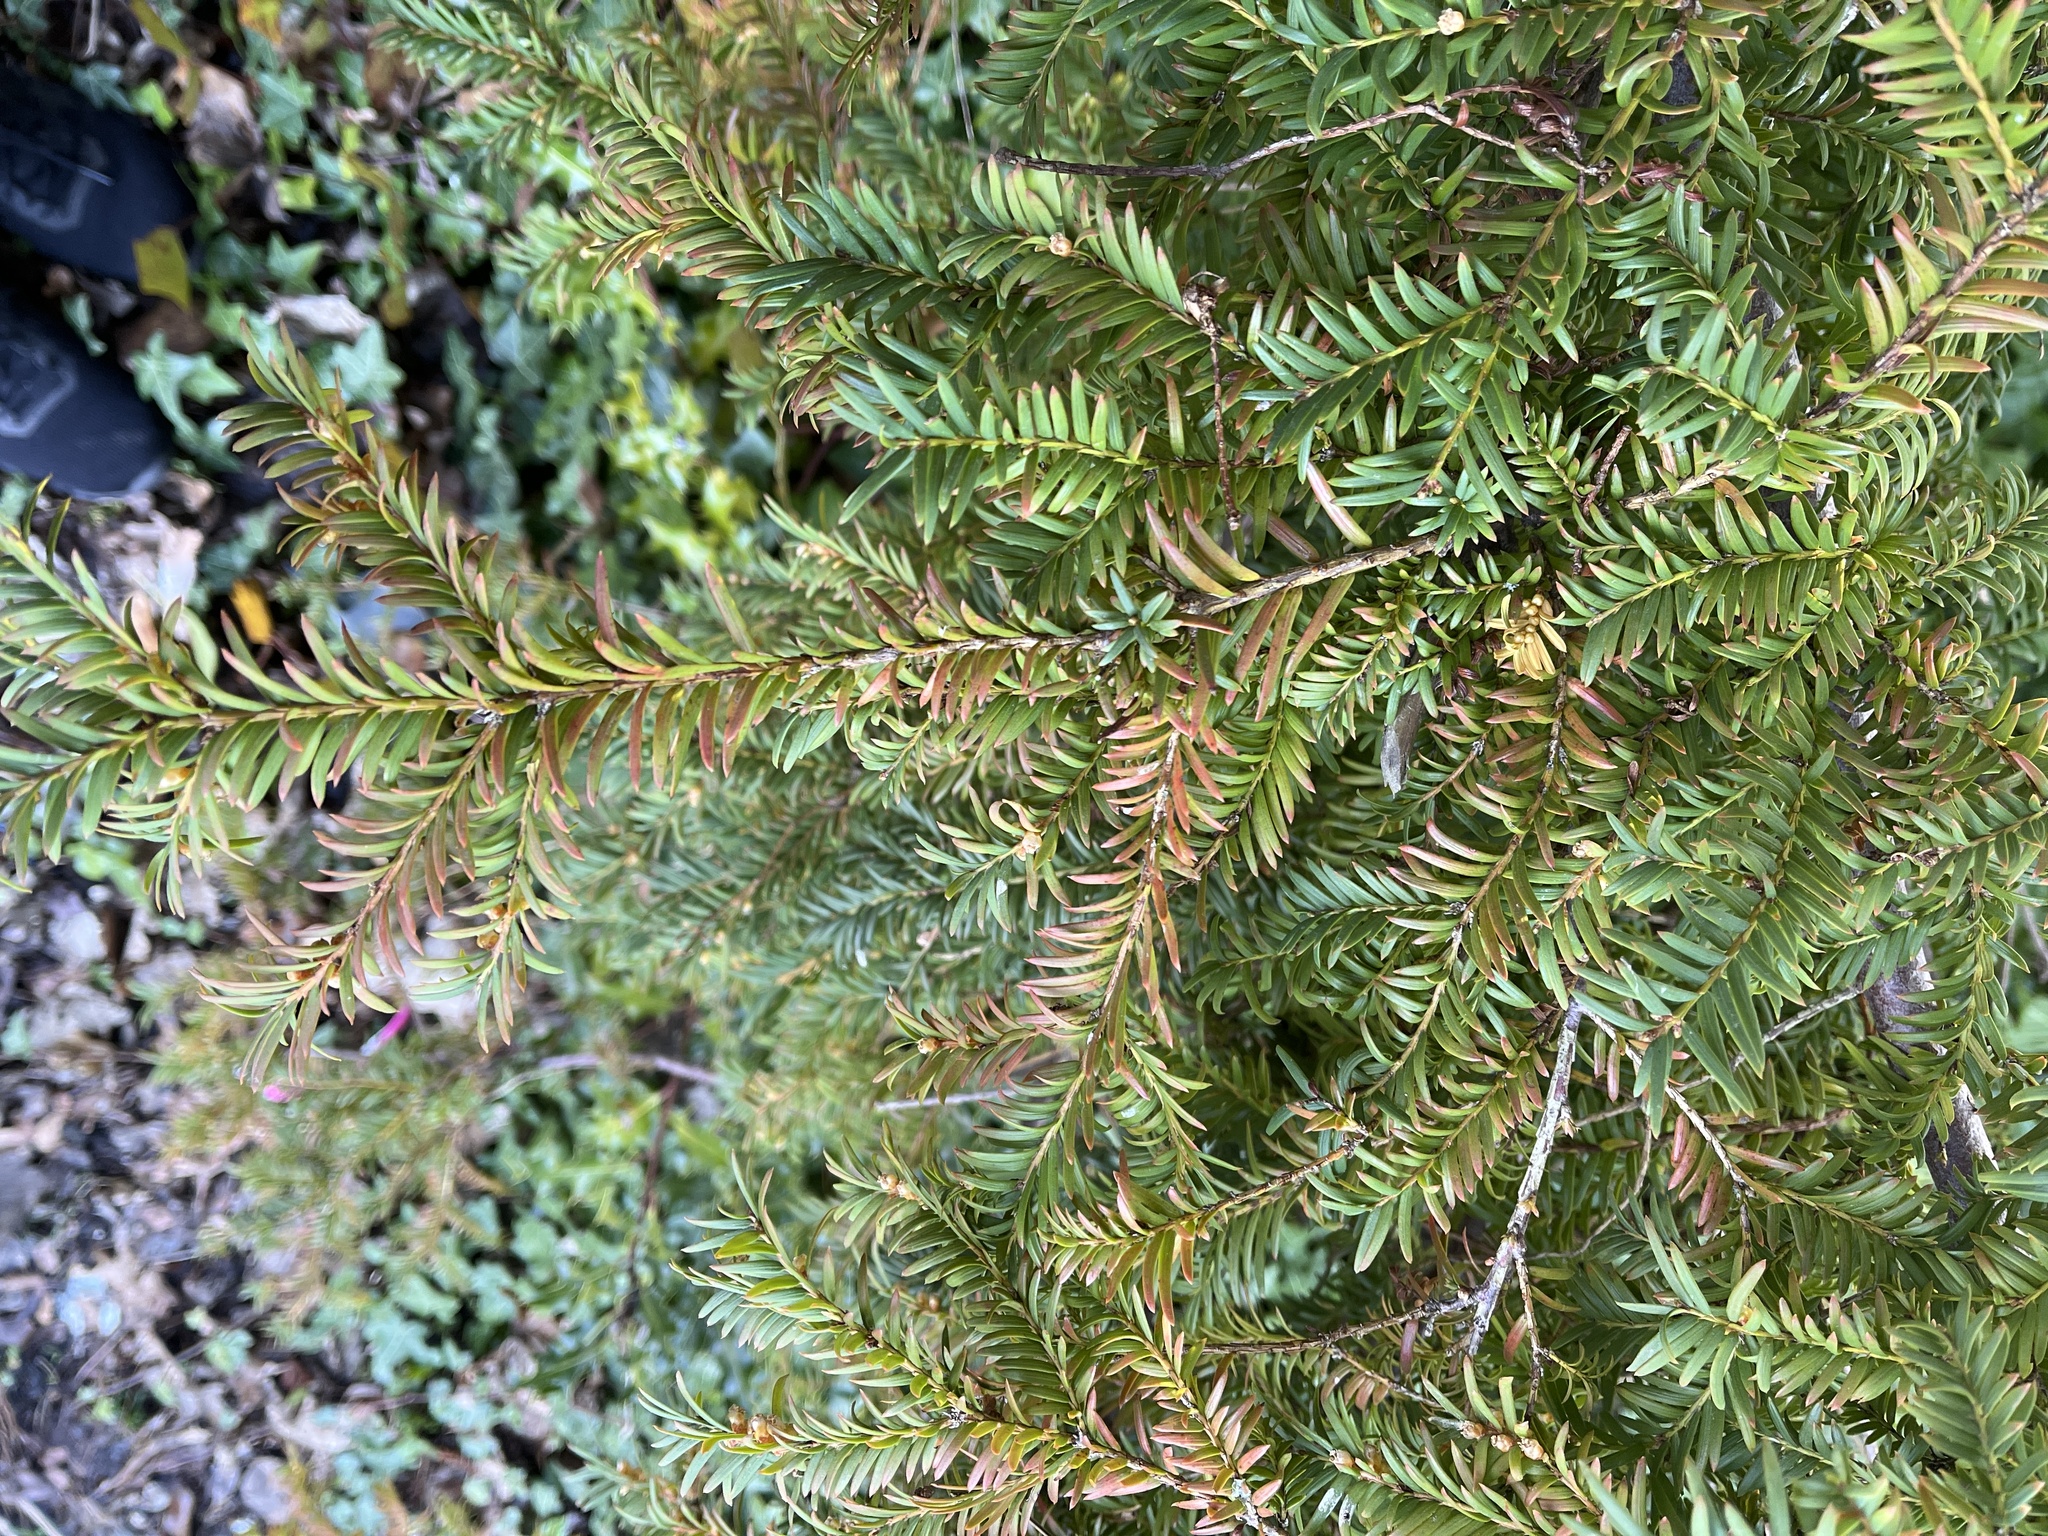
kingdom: Plantae
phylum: Tracheophyta
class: Pinopsida
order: Pinales
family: Taxaceae
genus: Taxus
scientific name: Taxus baccata
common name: Yew
